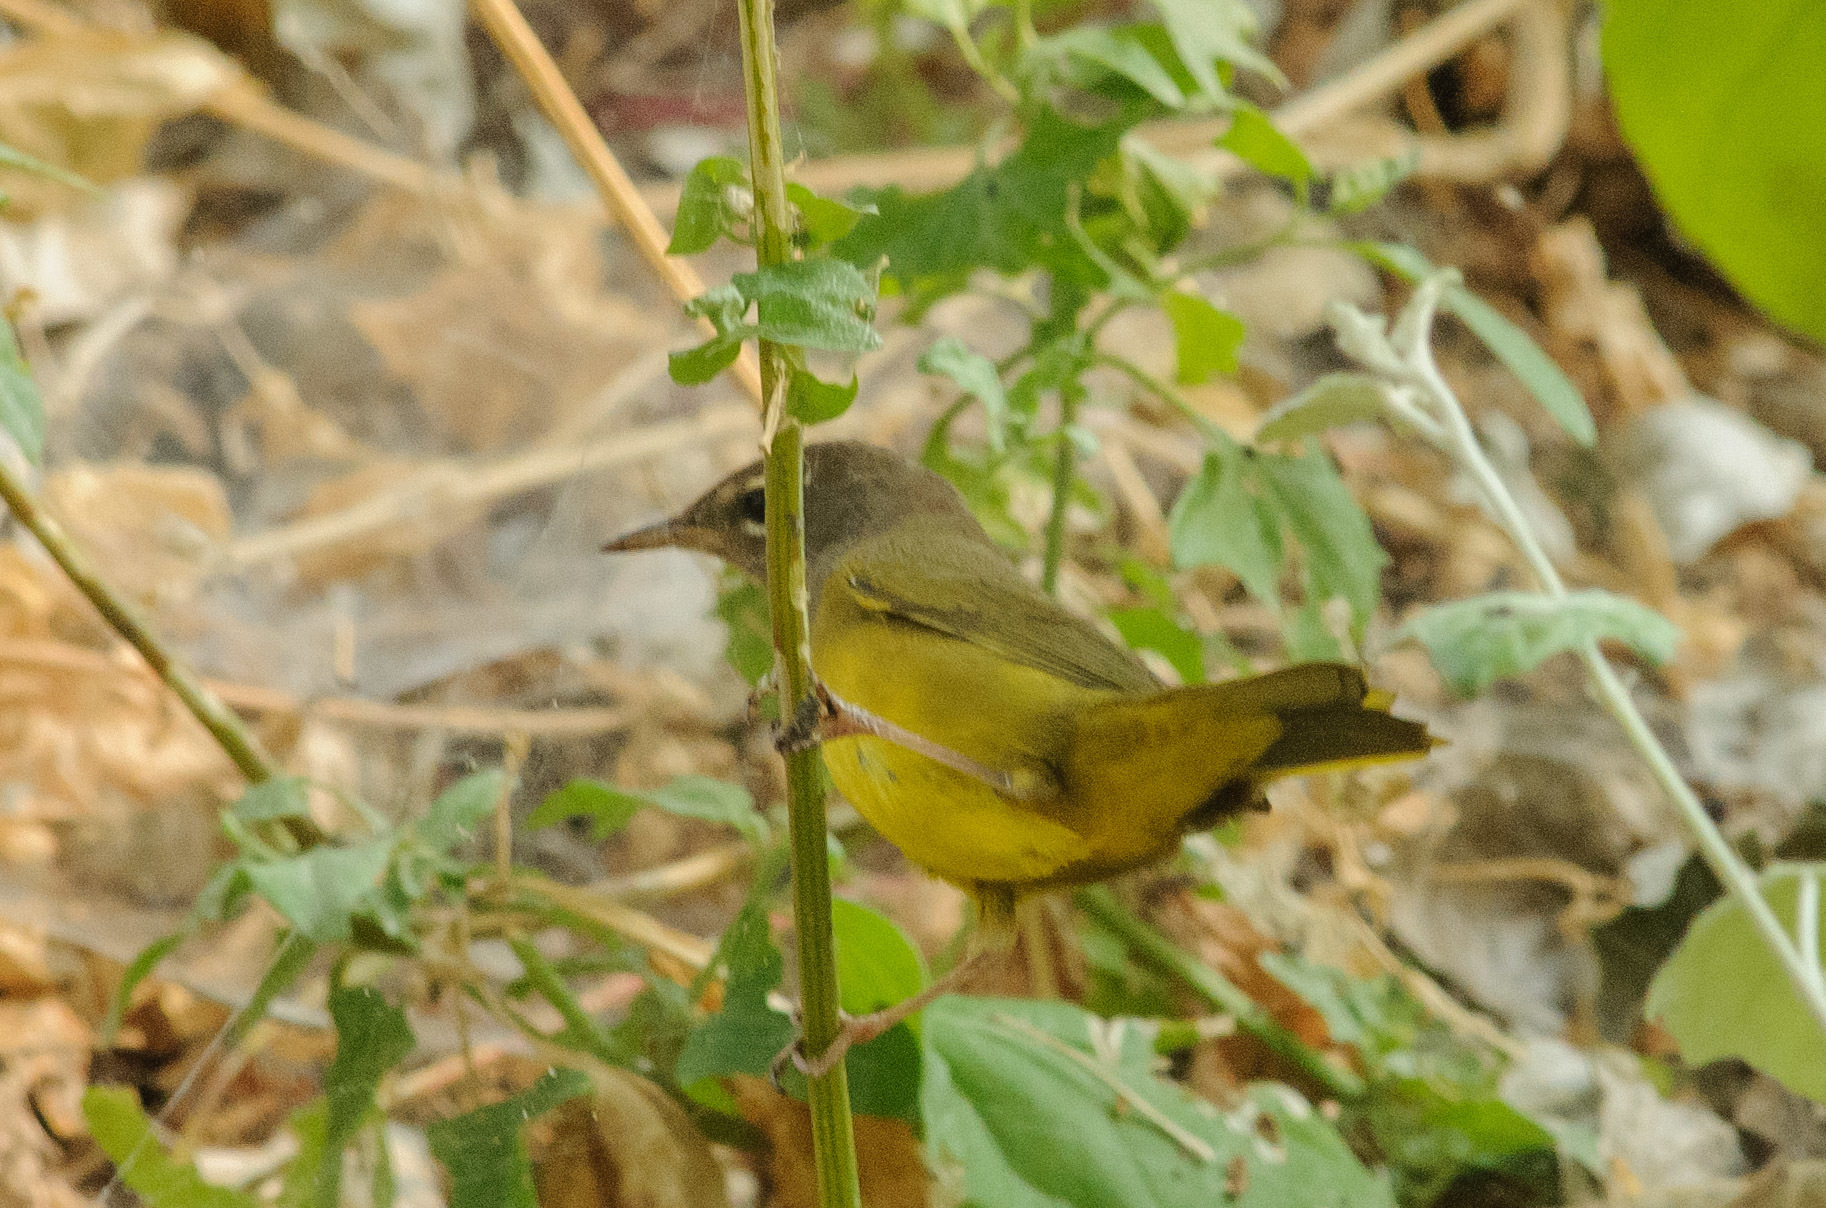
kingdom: Animalia
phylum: Chordata
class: Aves
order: Passeriformes
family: Parulidae
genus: Geothlypis
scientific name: Geothlypis tolmiei
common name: Macgillivray's warbler
